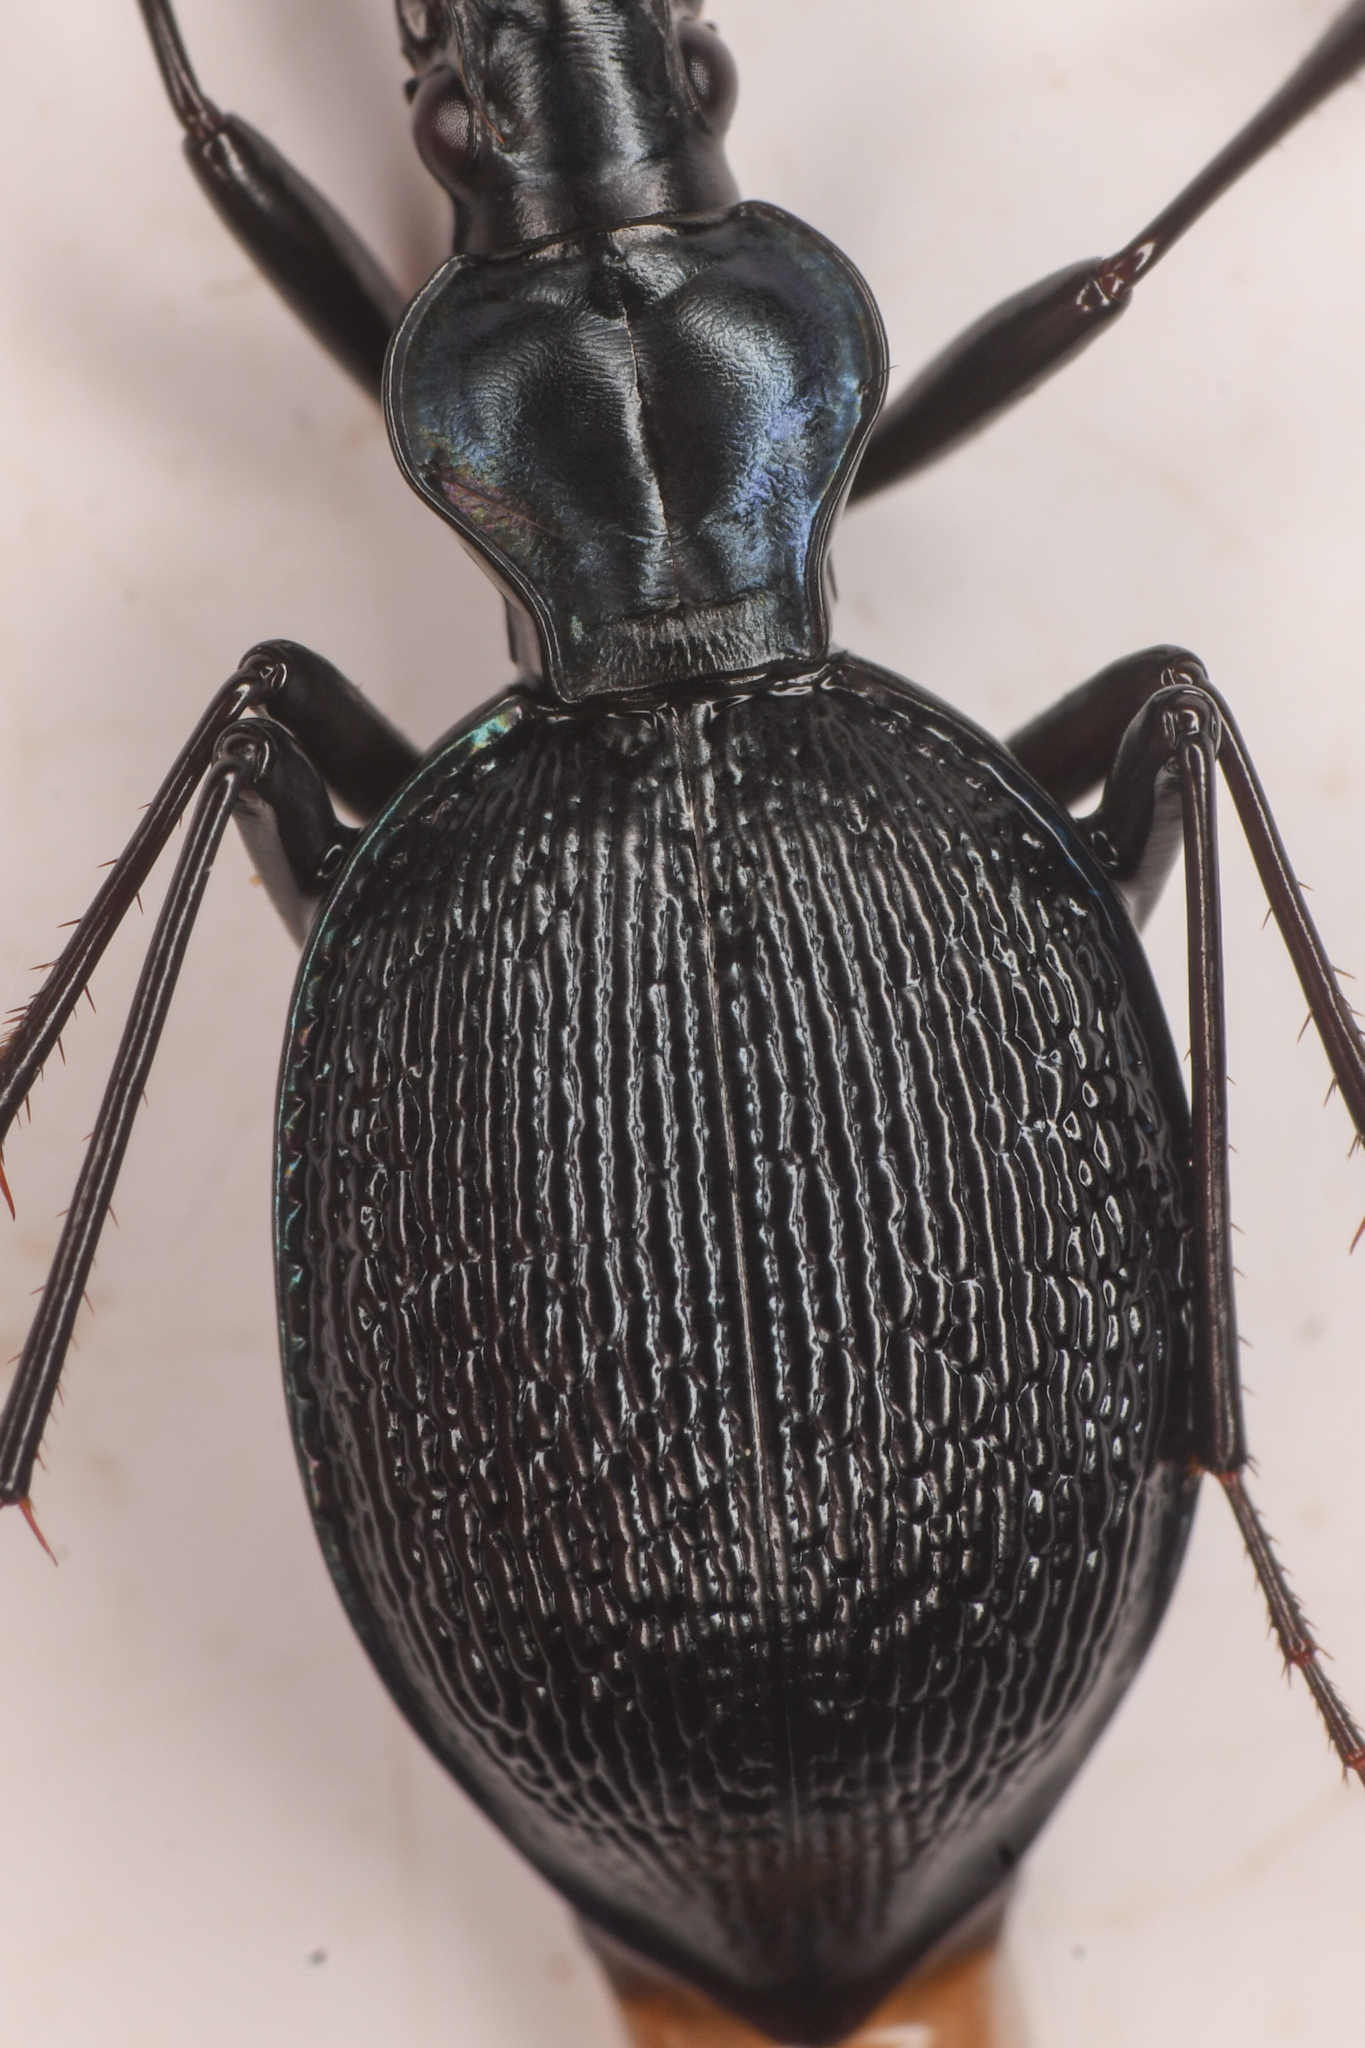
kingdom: Animalia
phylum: Arthropoda
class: Insecta
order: Coleoptera
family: Carabidae
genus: Scaphinotus
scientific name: Scaphinotus marginatus
